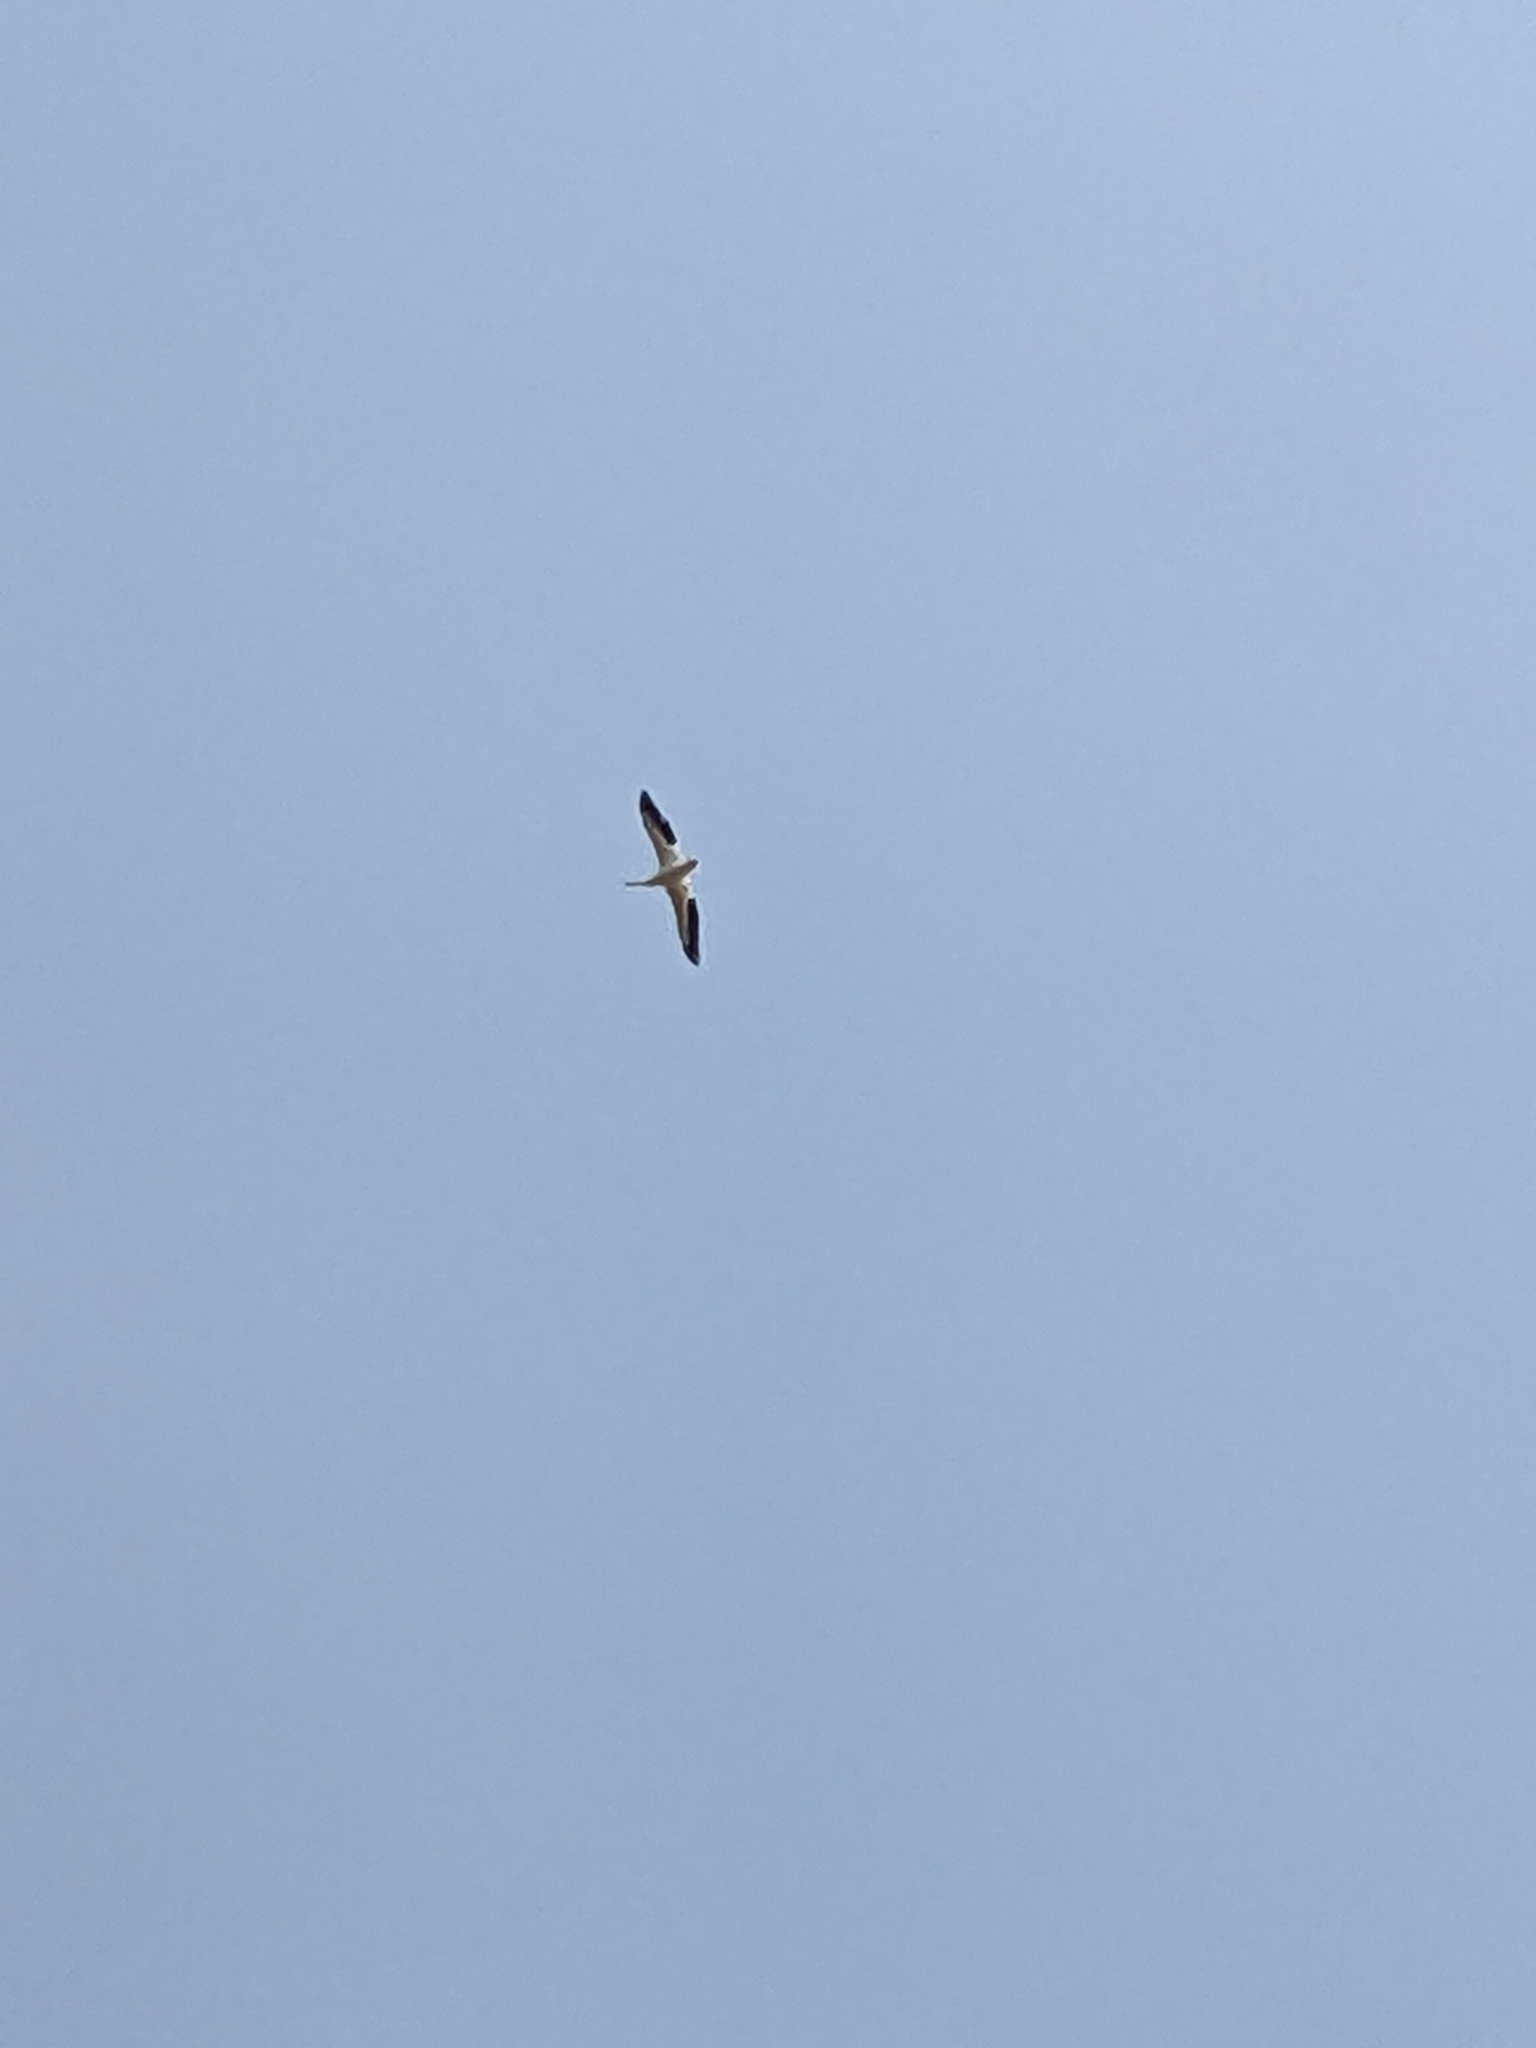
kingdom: Animalia
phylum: Chordata
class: Aves
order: Pelecaniformes
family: Pelecanidae
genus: Pelecanus
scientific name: Pelecanus erythrorhynchos
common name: American white pelican
